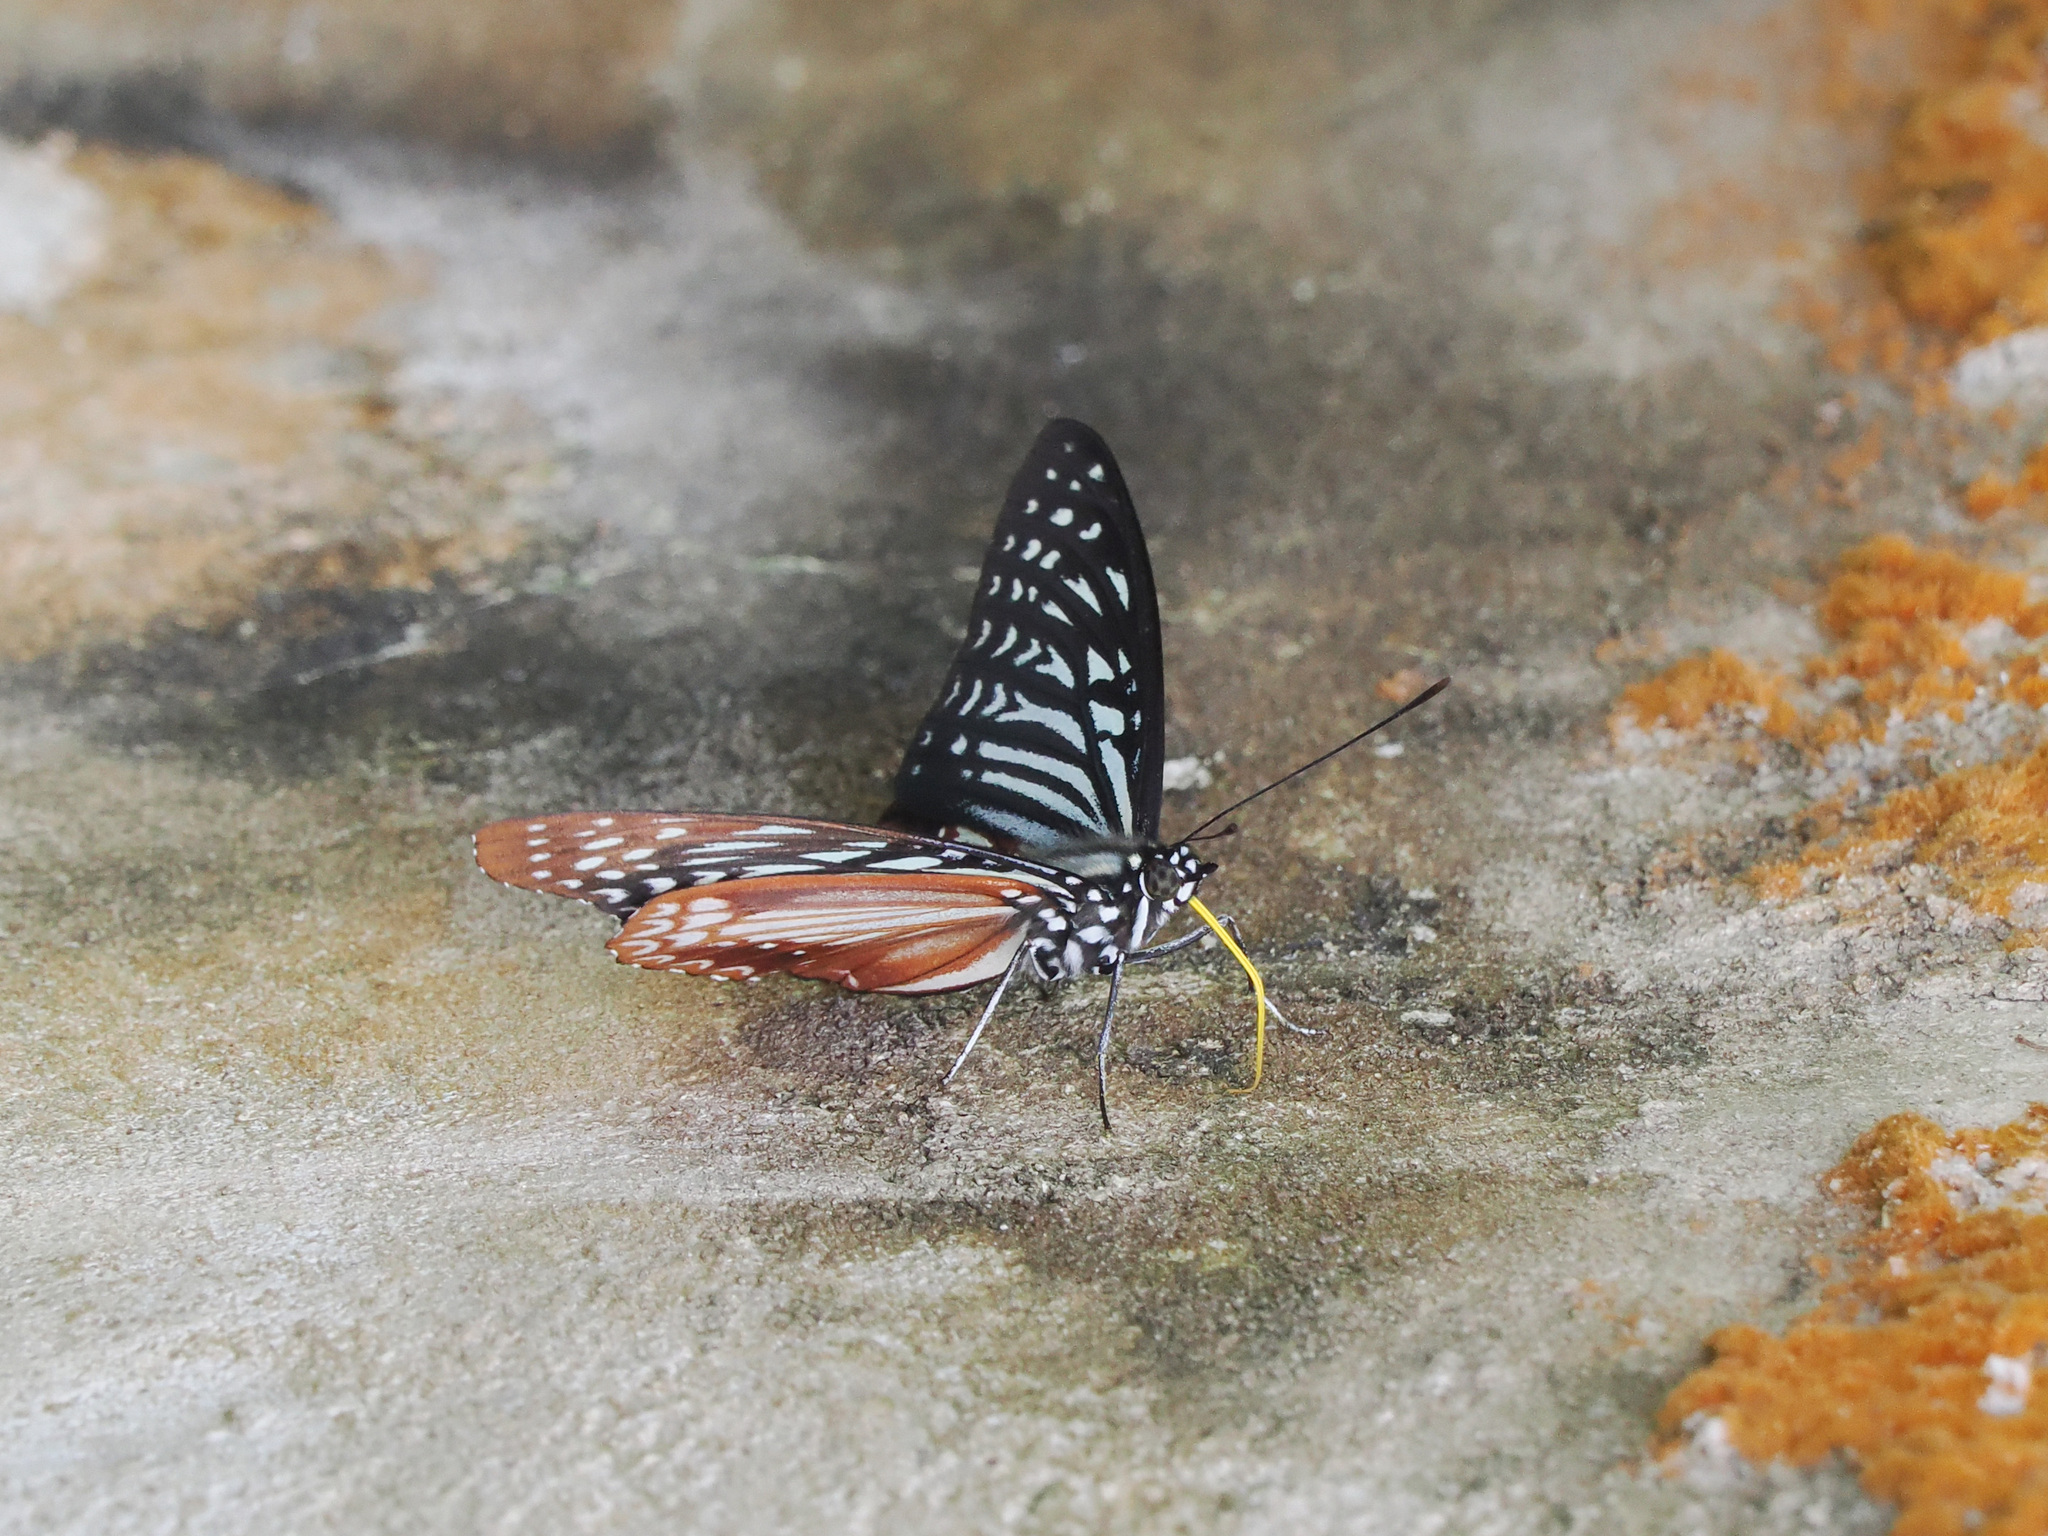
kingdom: Animalia
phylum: Arthropoda
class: Insecta
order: Lepidoptera
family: Nymphalidae
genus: Hestinalis
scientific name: Hestinalis nama
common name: Circe
